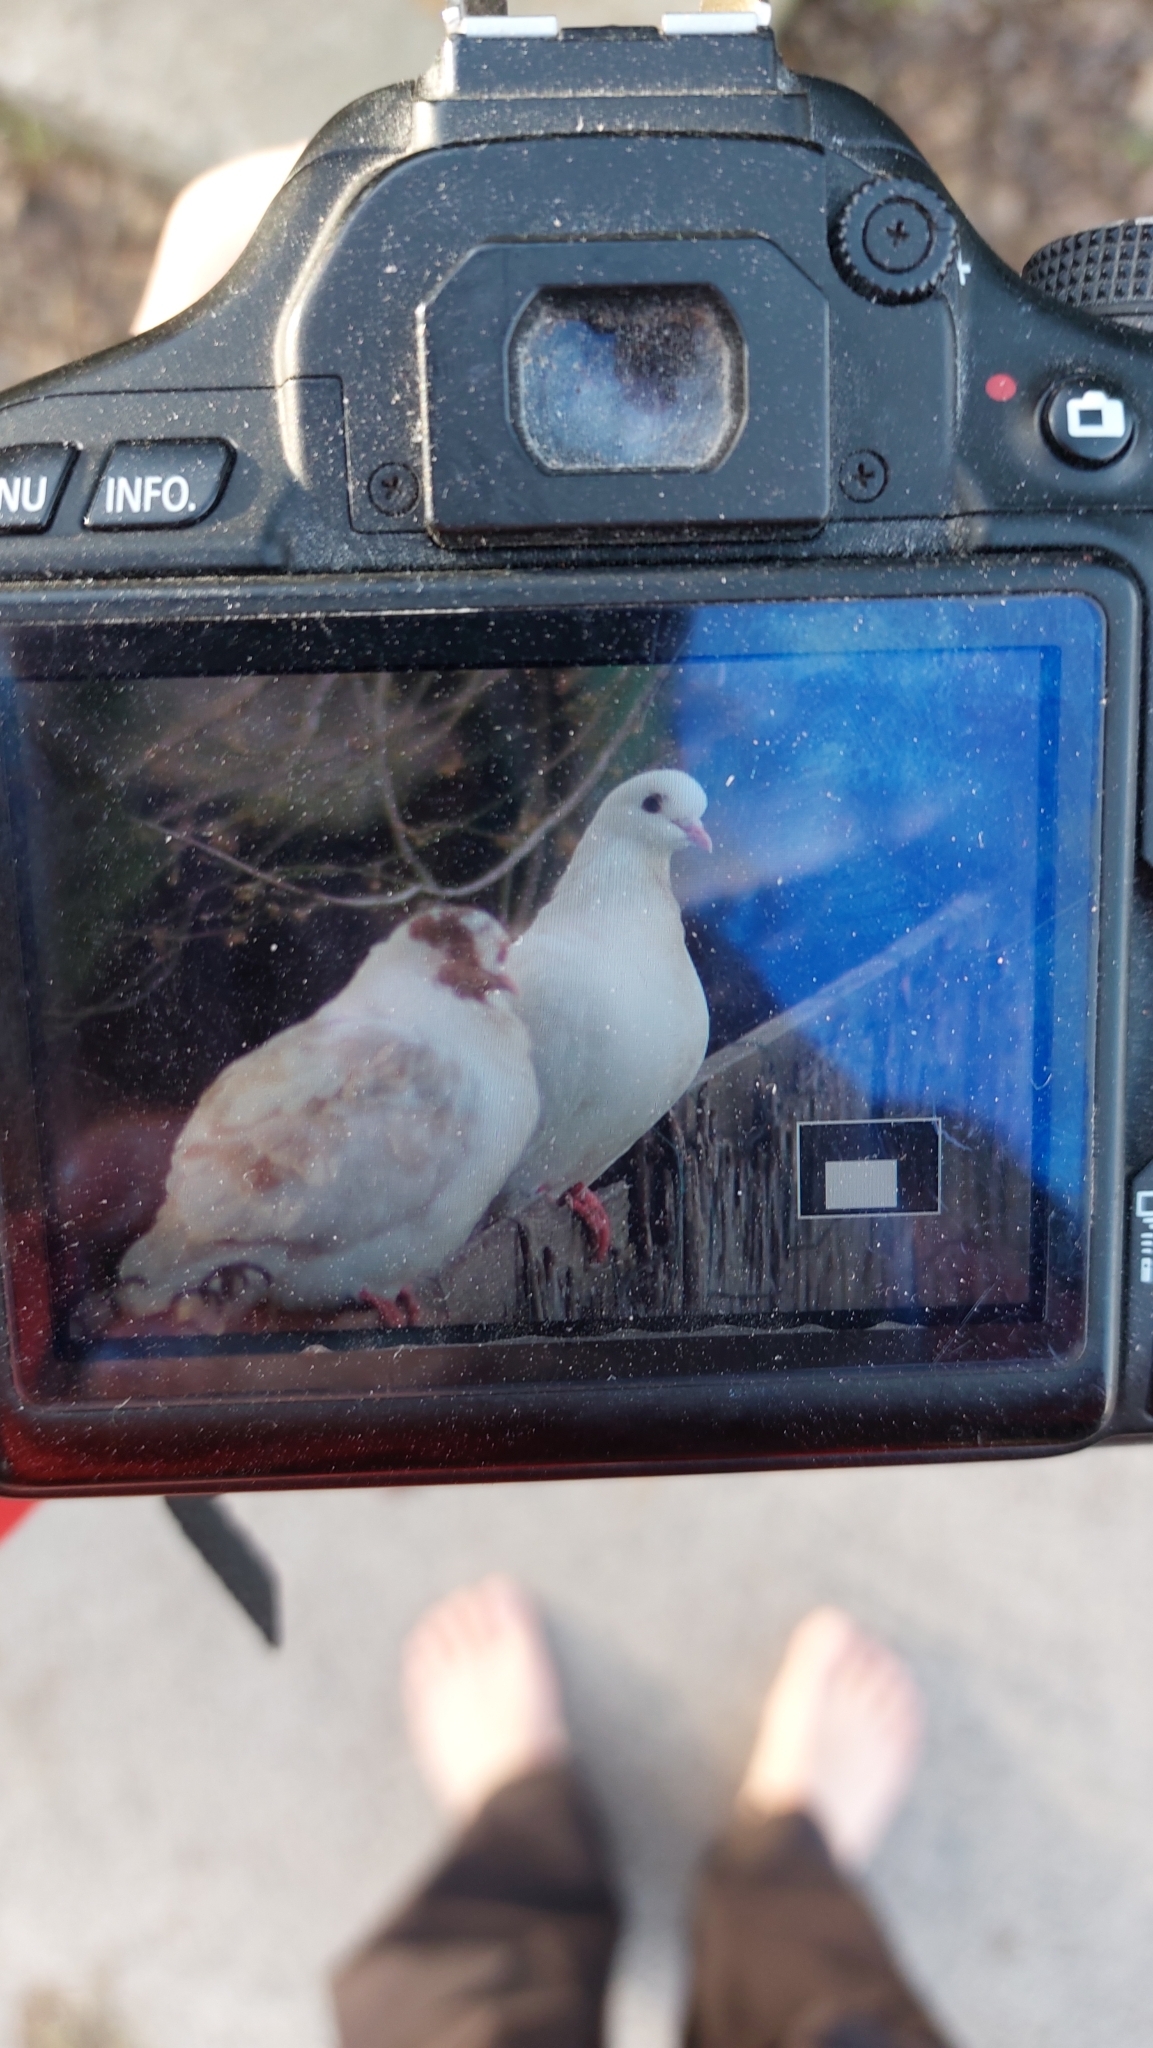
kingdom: Animalia
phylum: Chordata
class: Aves
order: Columbiformes
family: Columbidae
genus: Columba
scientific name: Columba livia
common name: Rock pigeon
